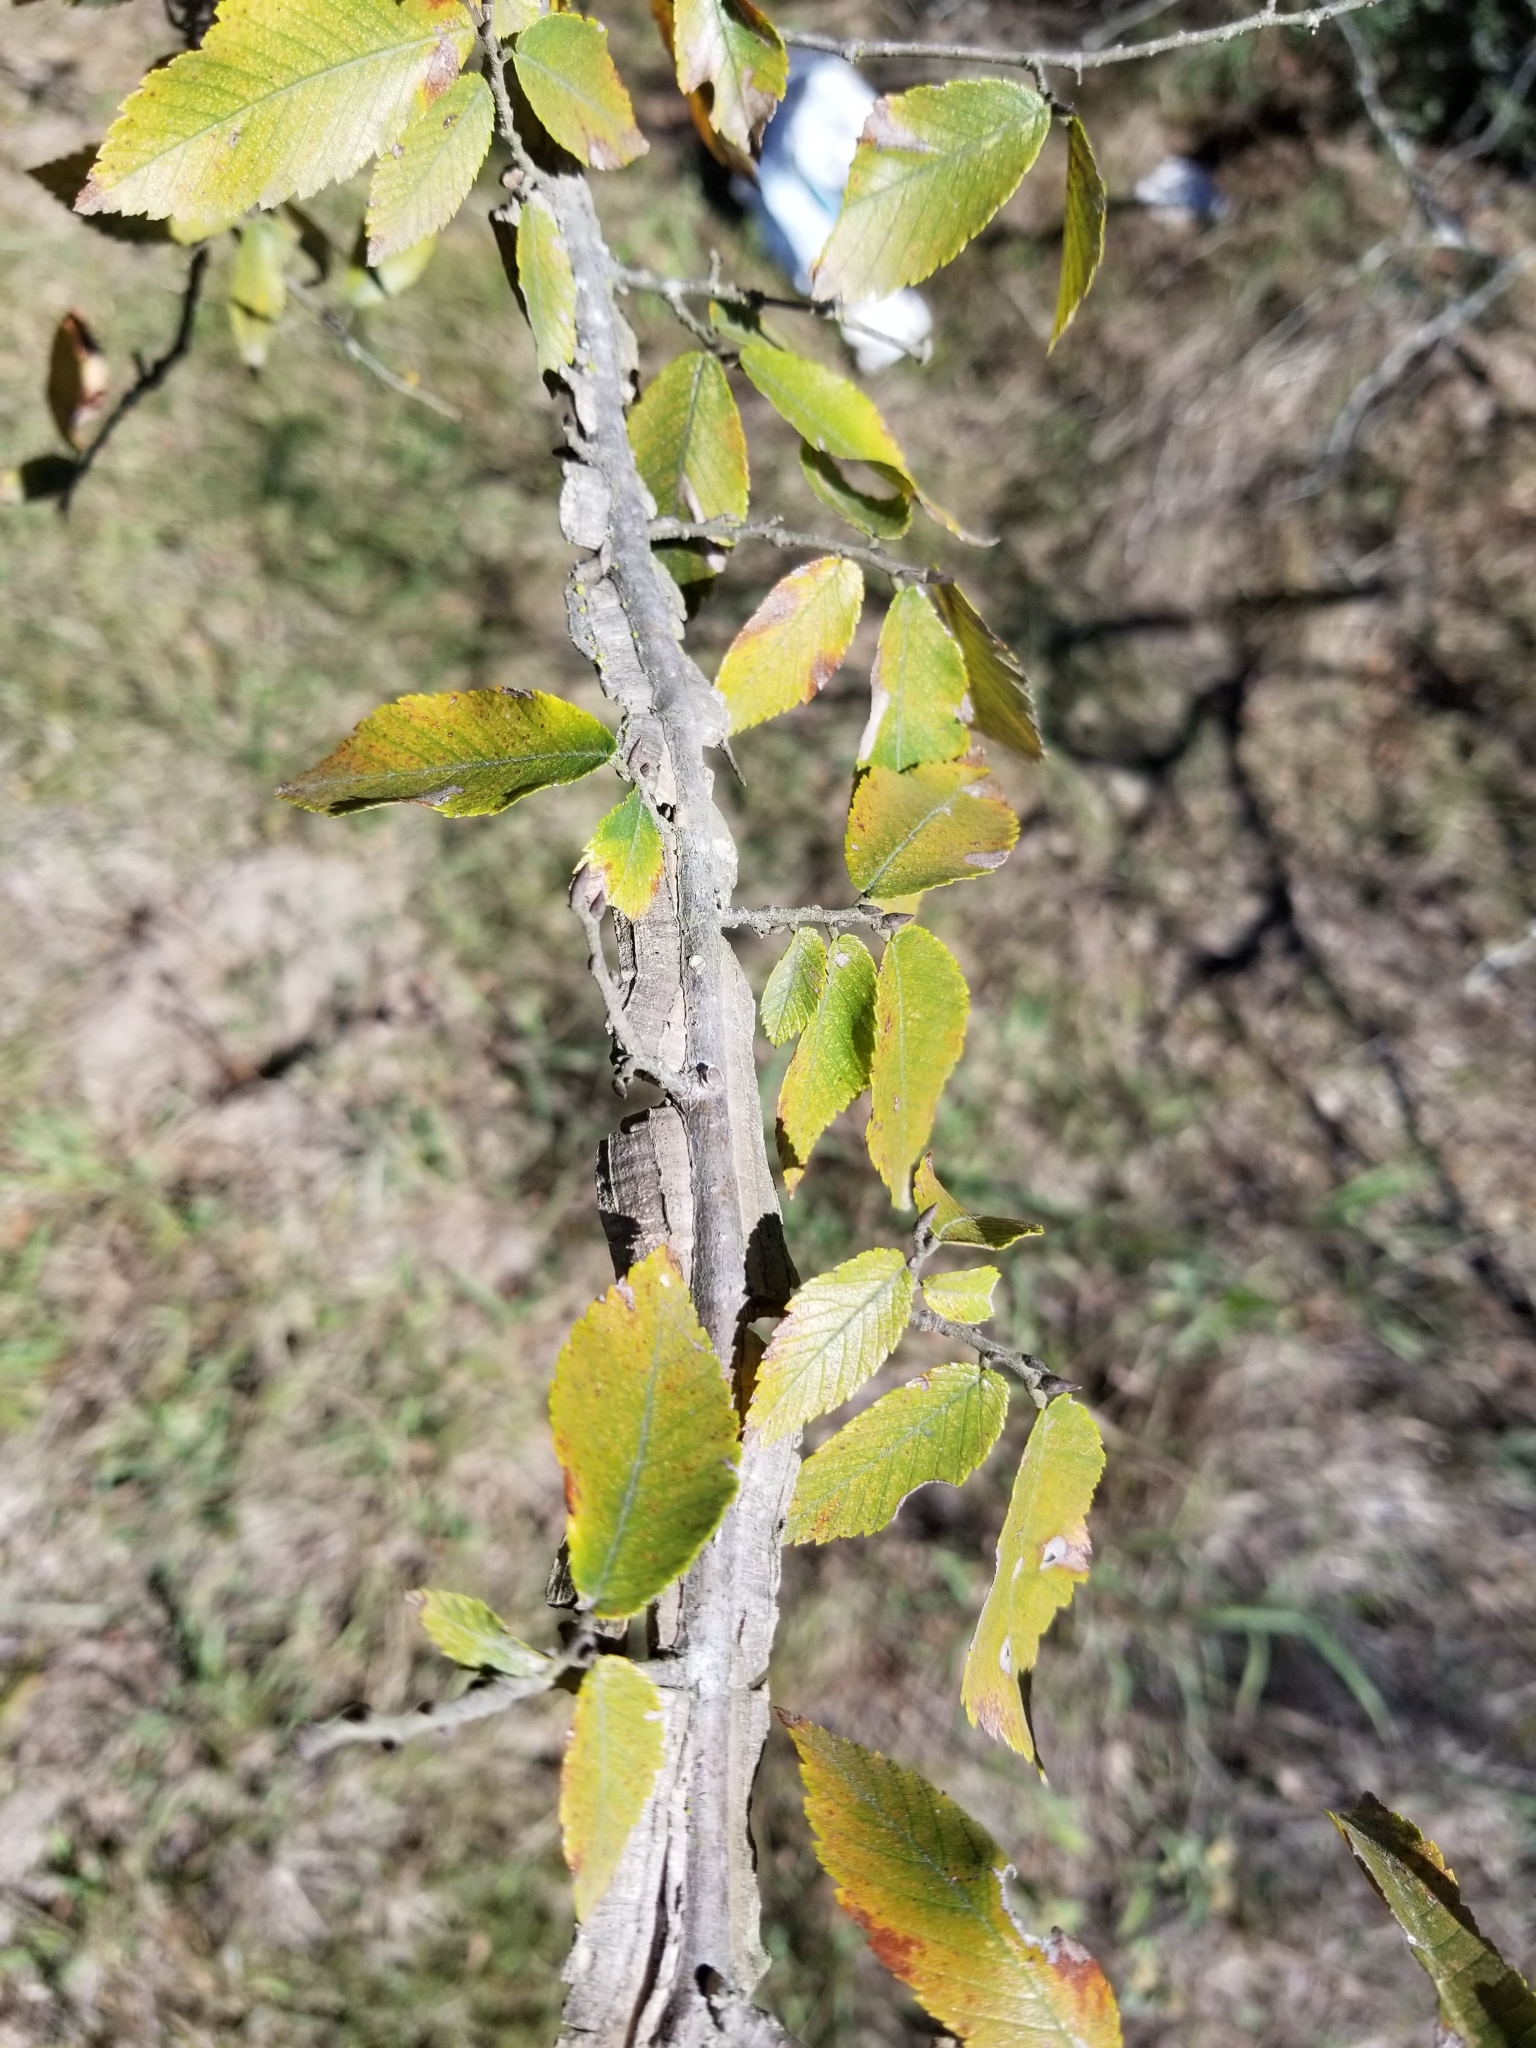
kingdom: Plantae
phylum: Tracheophyta
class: Magnoliopsida
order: Rosales
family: Ulmaceae
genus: Ulmus
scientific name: Ulmus alata
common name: Winged elm
